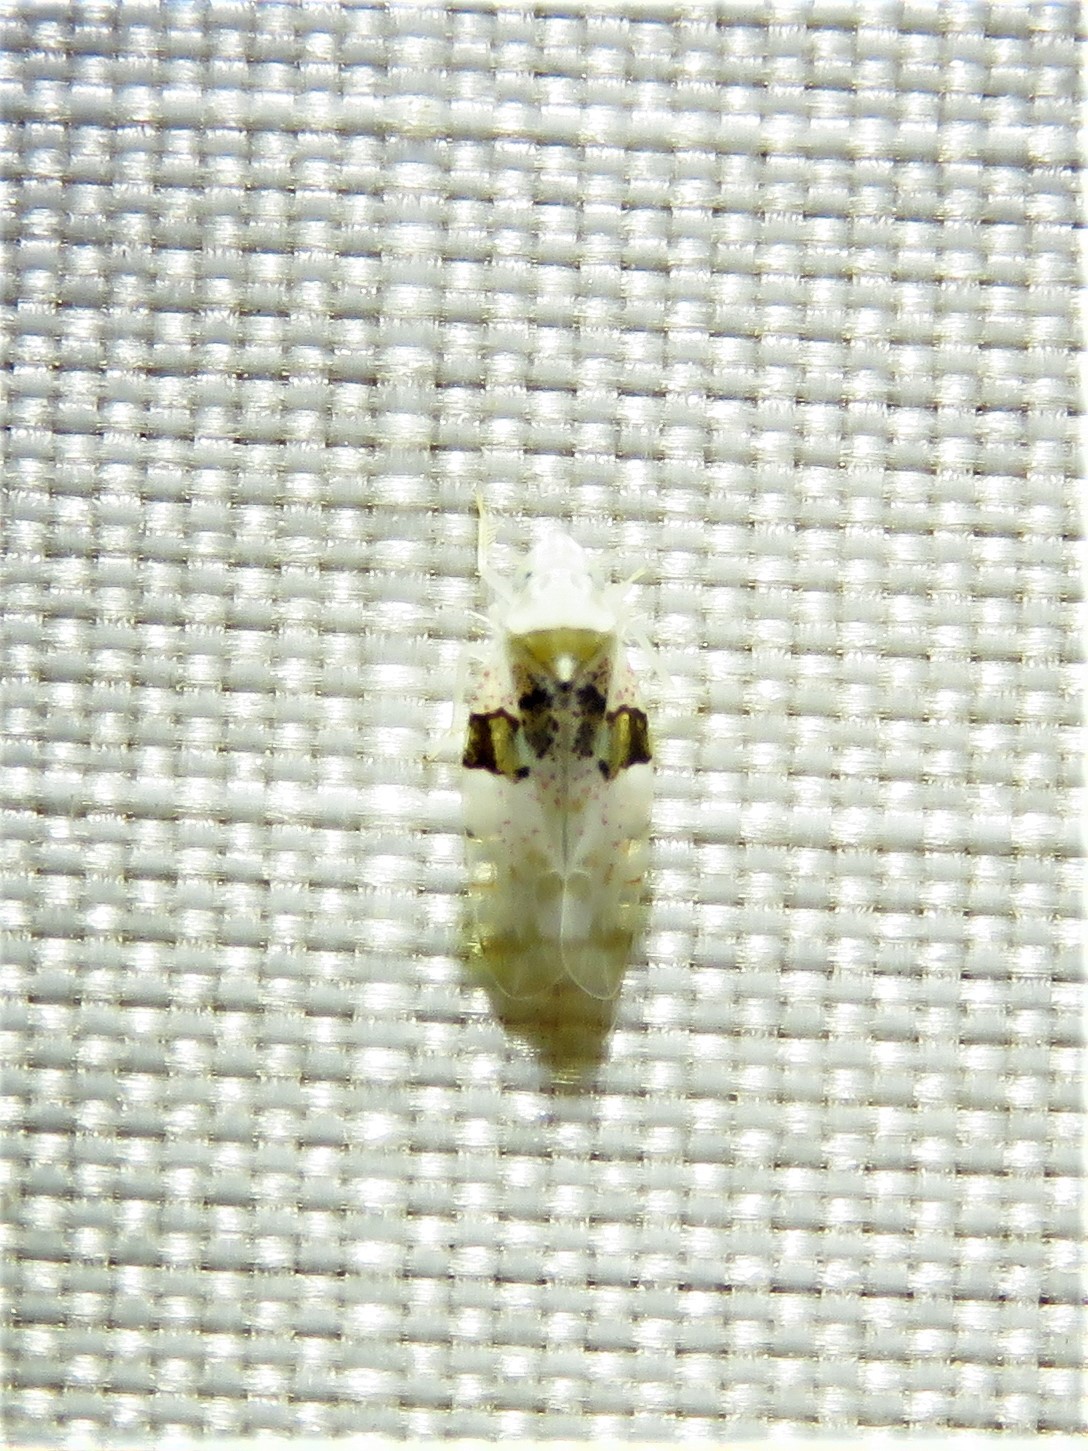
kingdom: Animalia
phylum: Arthropoda
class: Insecta
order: Hemiptera
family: Cicadellidae
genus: Hymetta
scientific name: Hymetta anthisma
